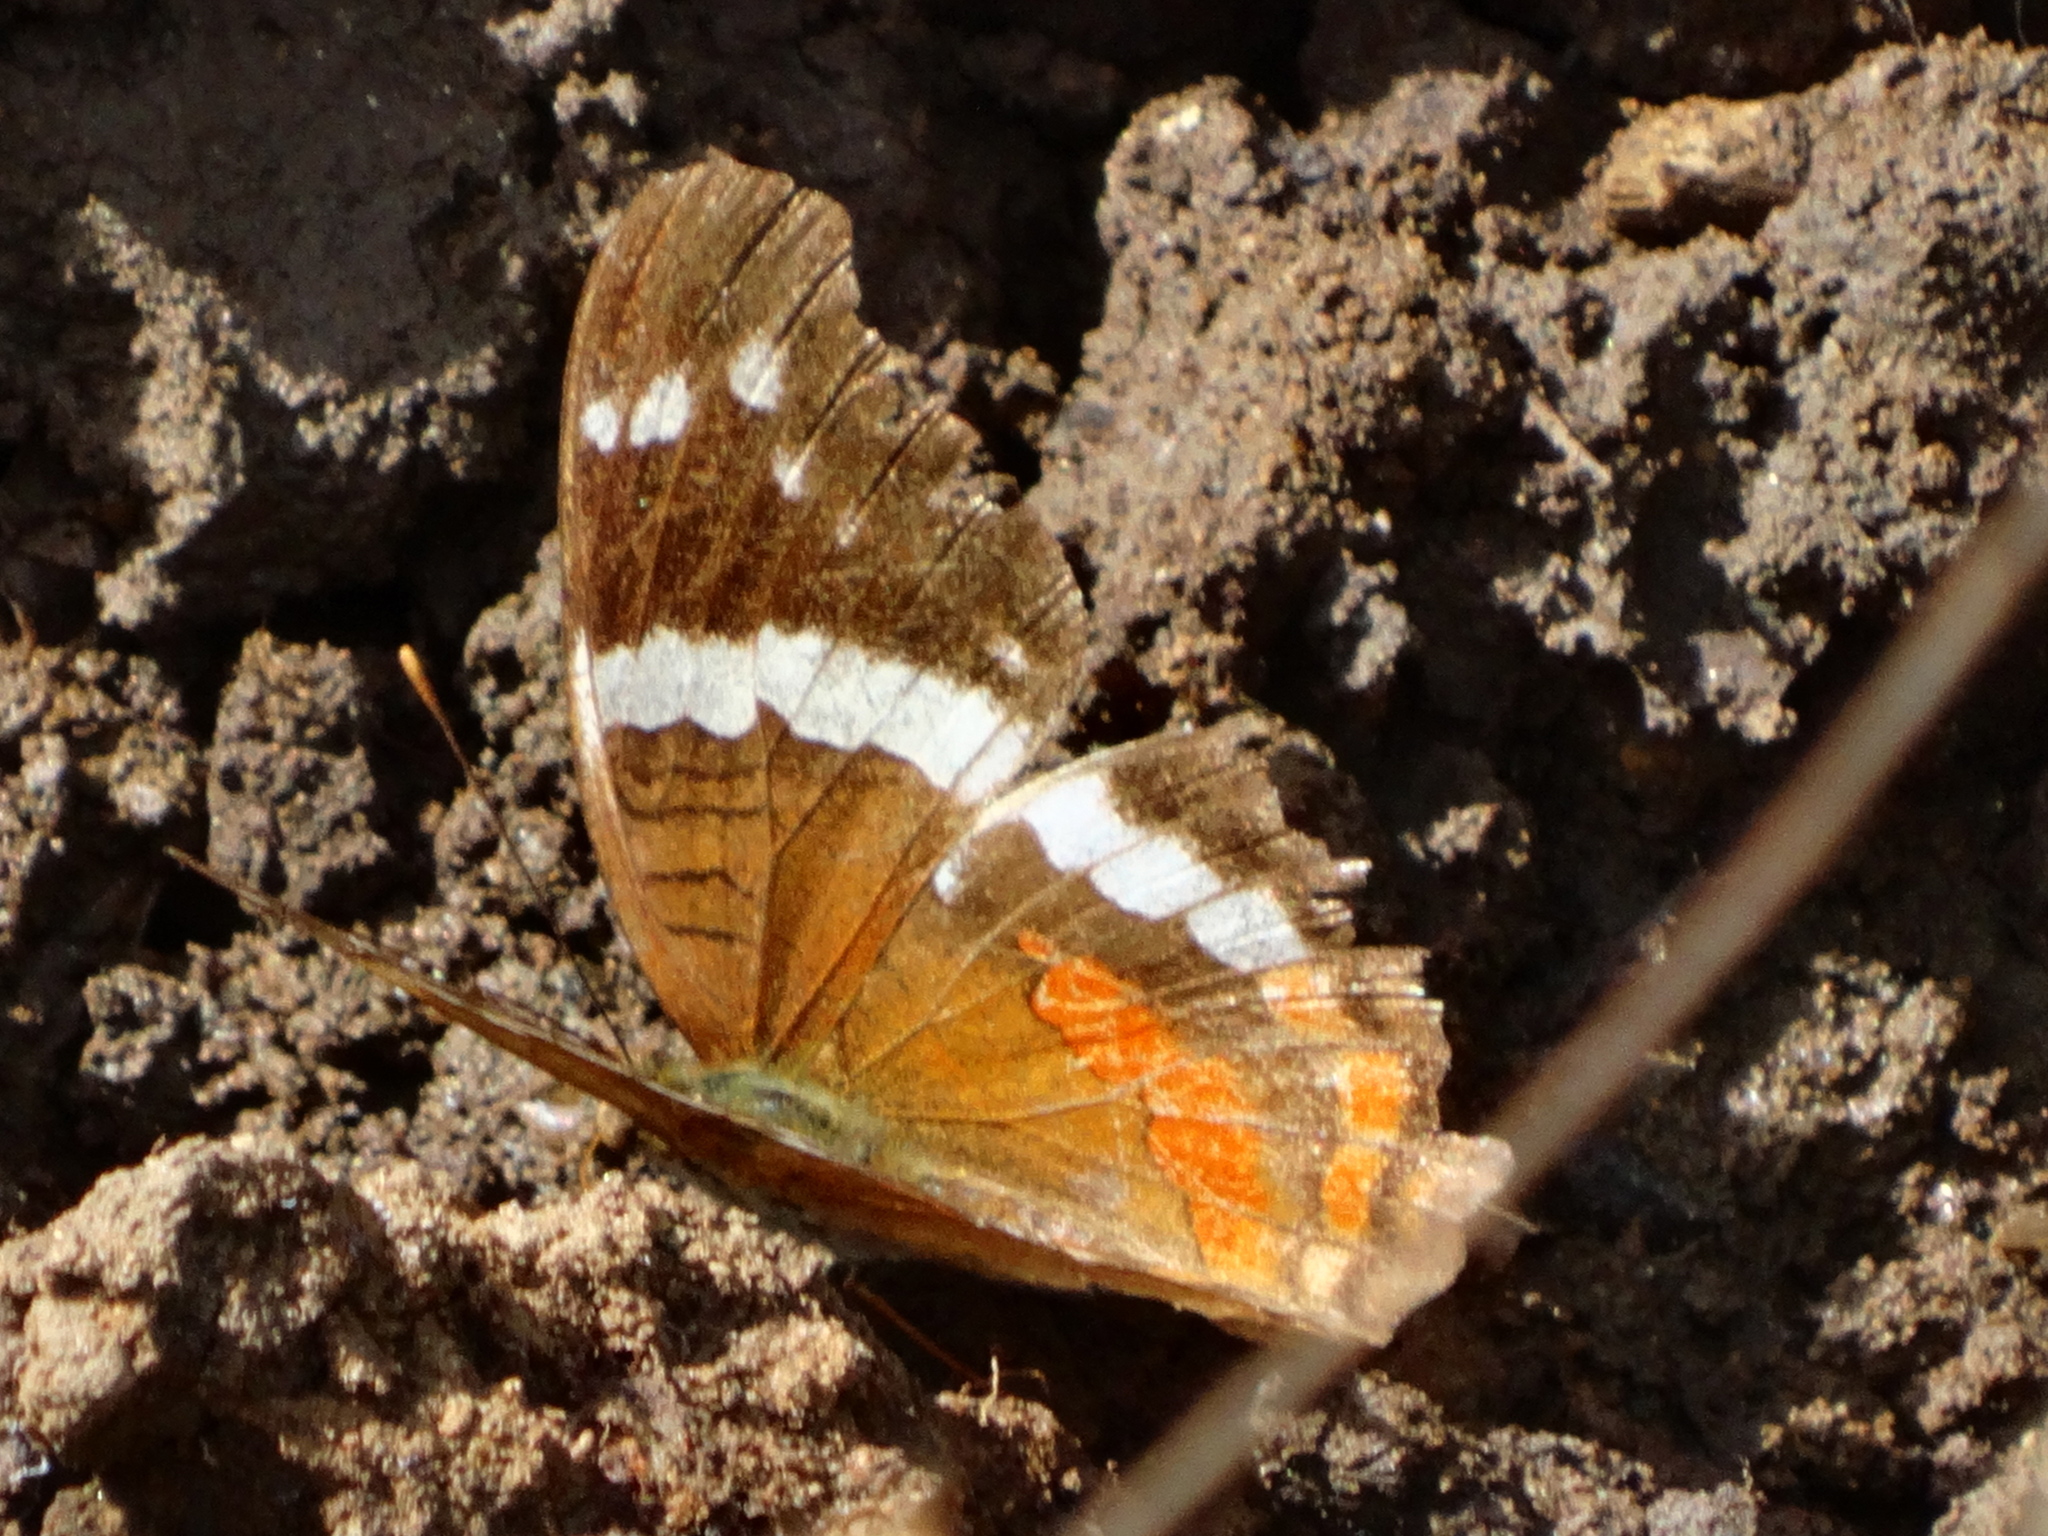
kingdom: Animalia
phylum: Arthropoda
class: Insecta
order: Lepidoptera
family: Nymphalidae
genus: Anartia
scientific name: Anartia fatima
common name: Banded peacock
